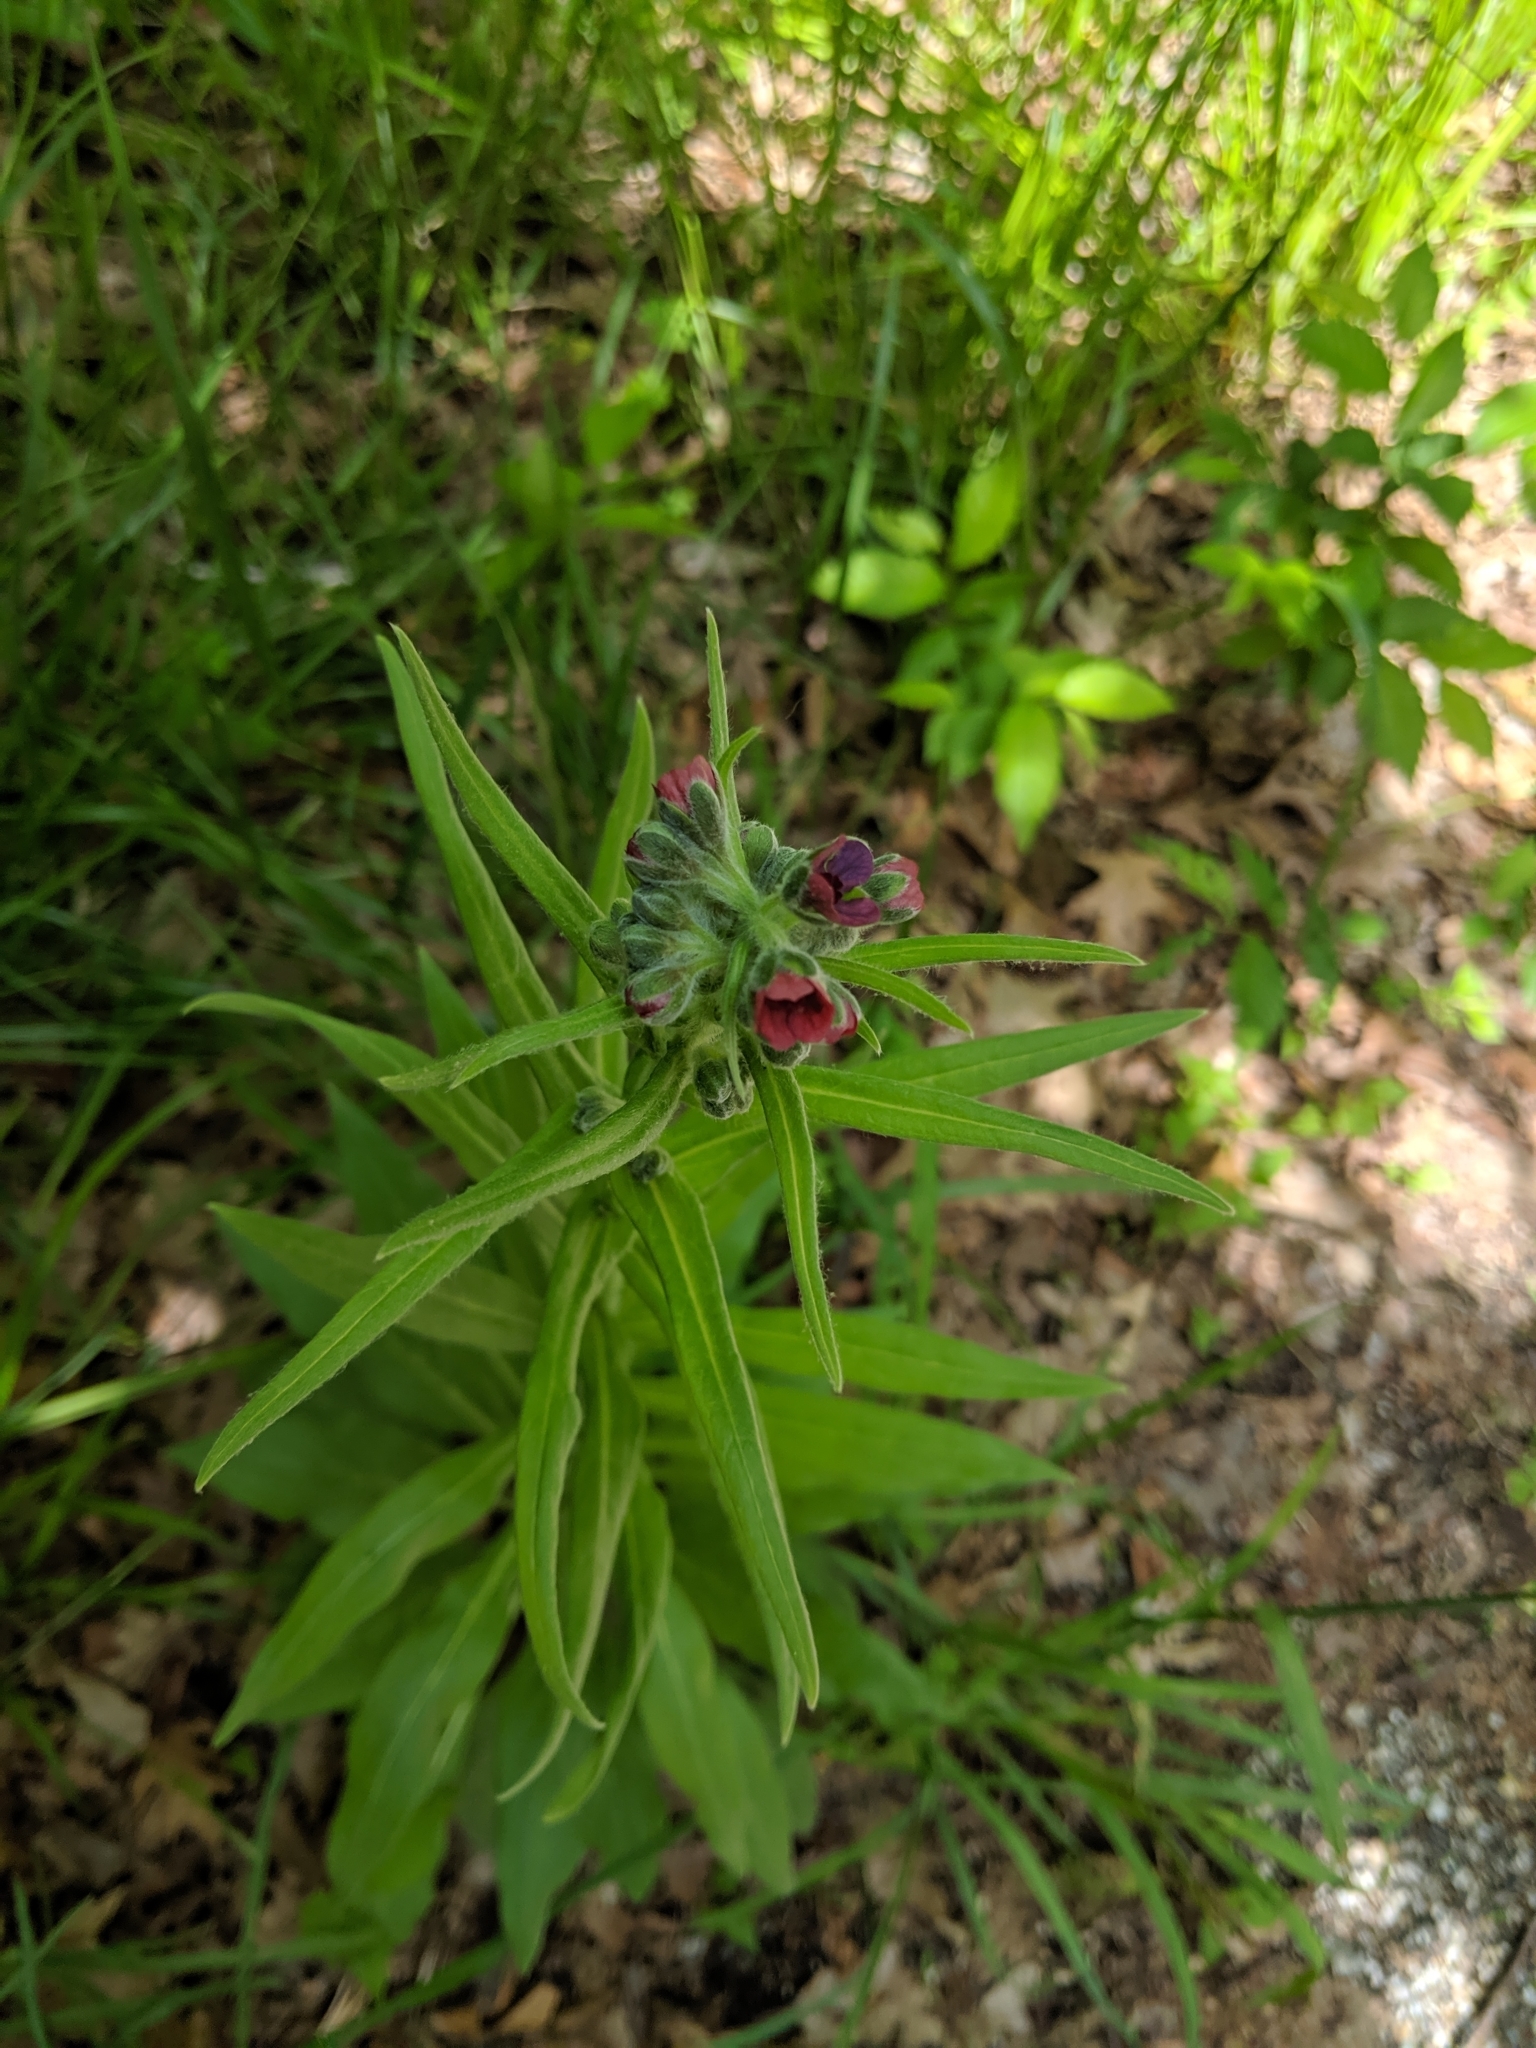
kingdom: Plantae
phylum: Tracheophyta
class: Magnoliopsida
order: Boraginales
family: Boraginaceae
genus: Cynoglossum
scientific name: Cynoglossum officinale
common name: Hound's-tongue
